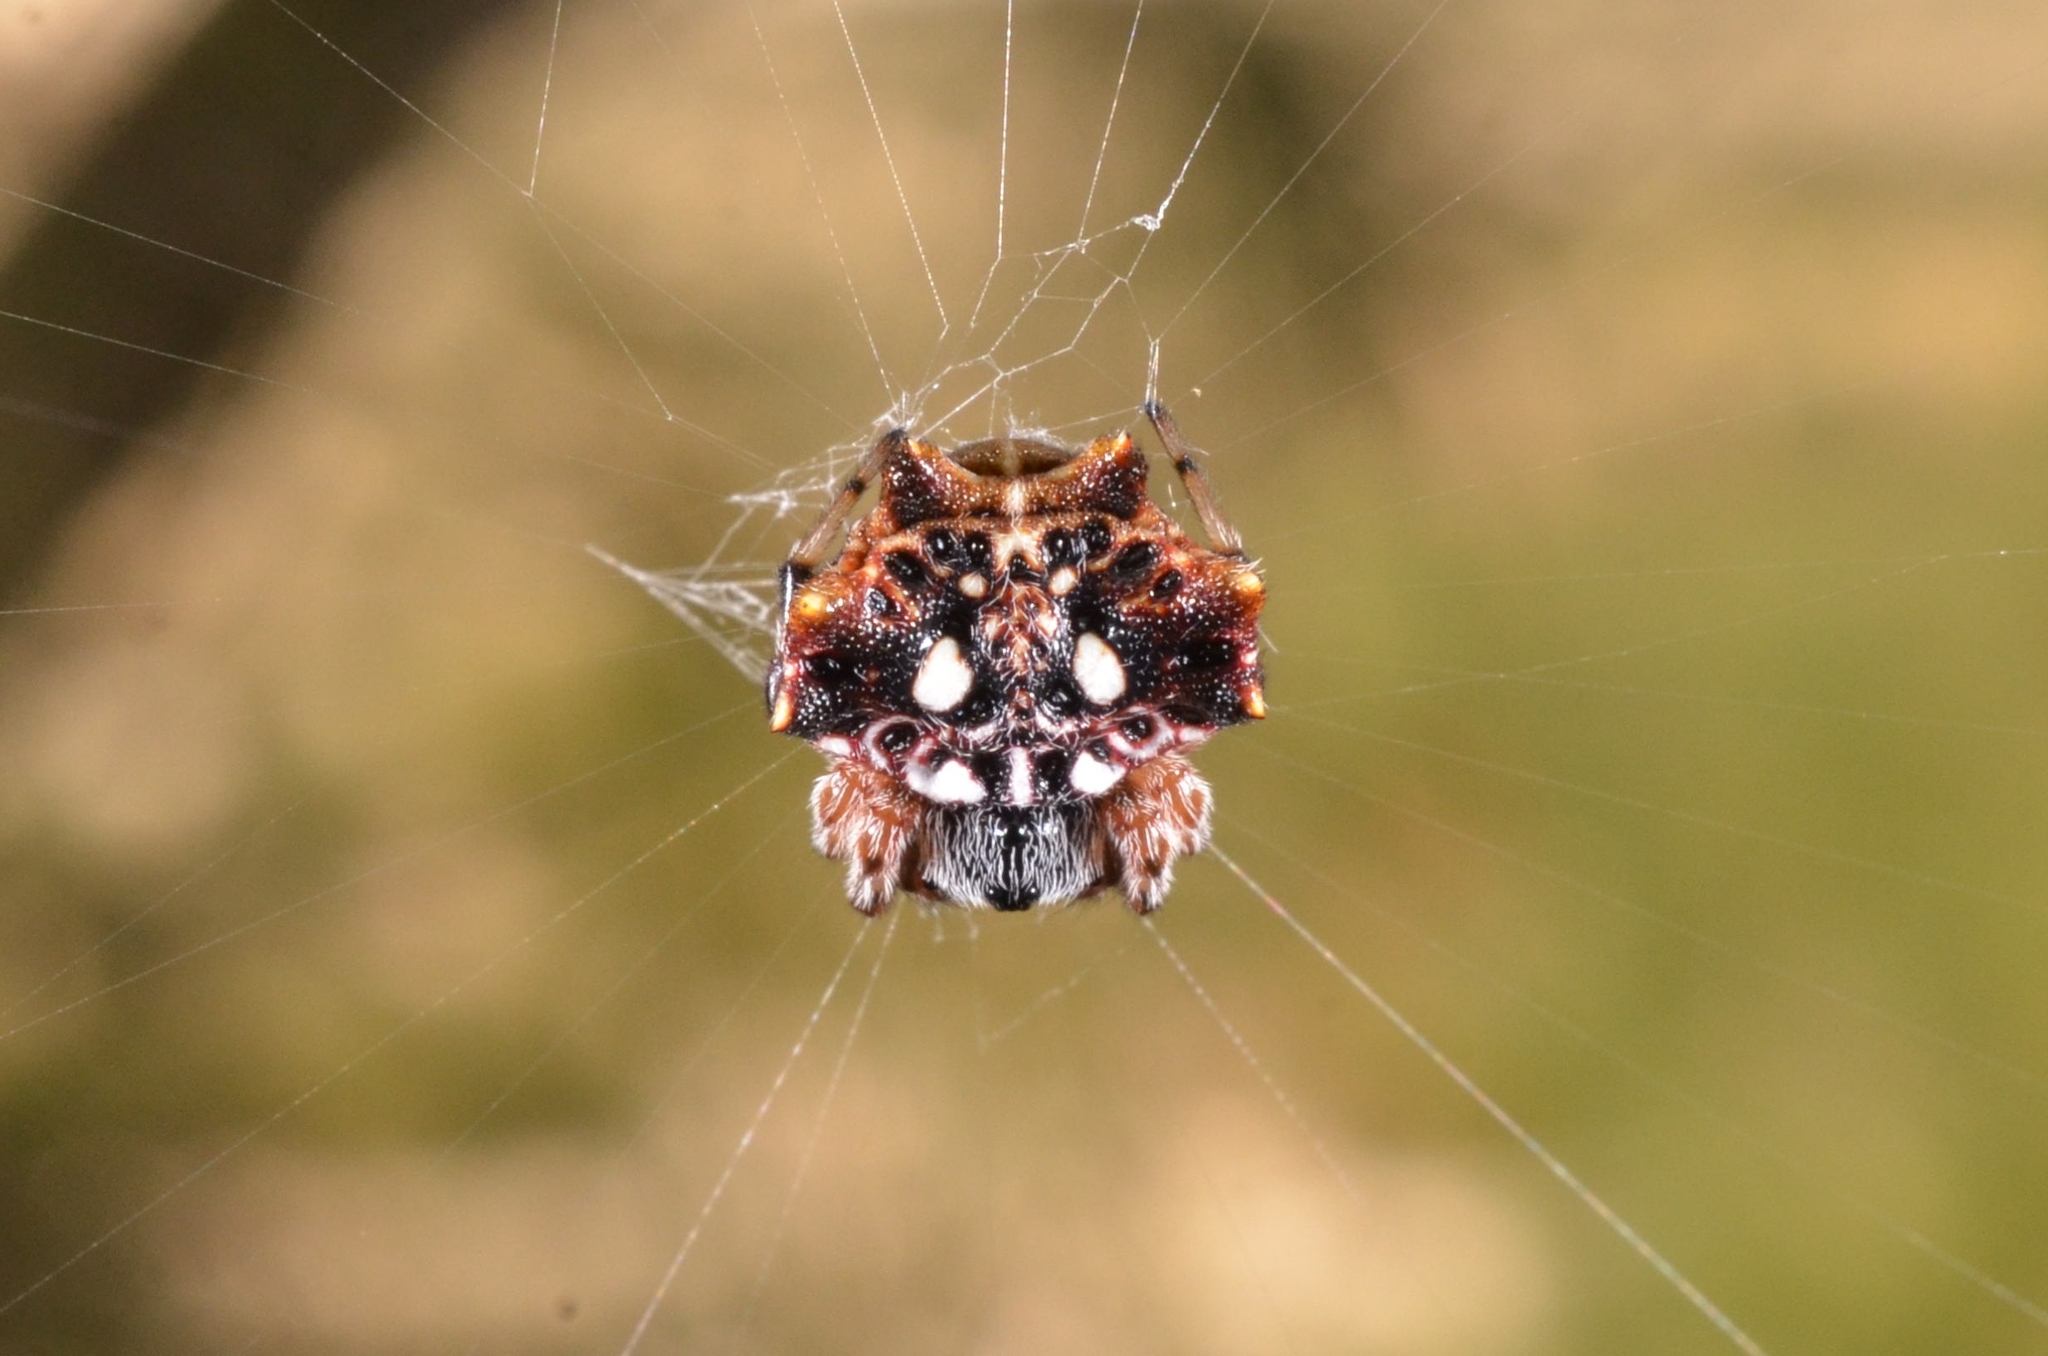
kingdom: Animalia
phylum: Arthropoda
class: Arachnida
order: Araneae
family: Araneidae
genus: Thelacantha
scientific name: Thelacantha brevispina
